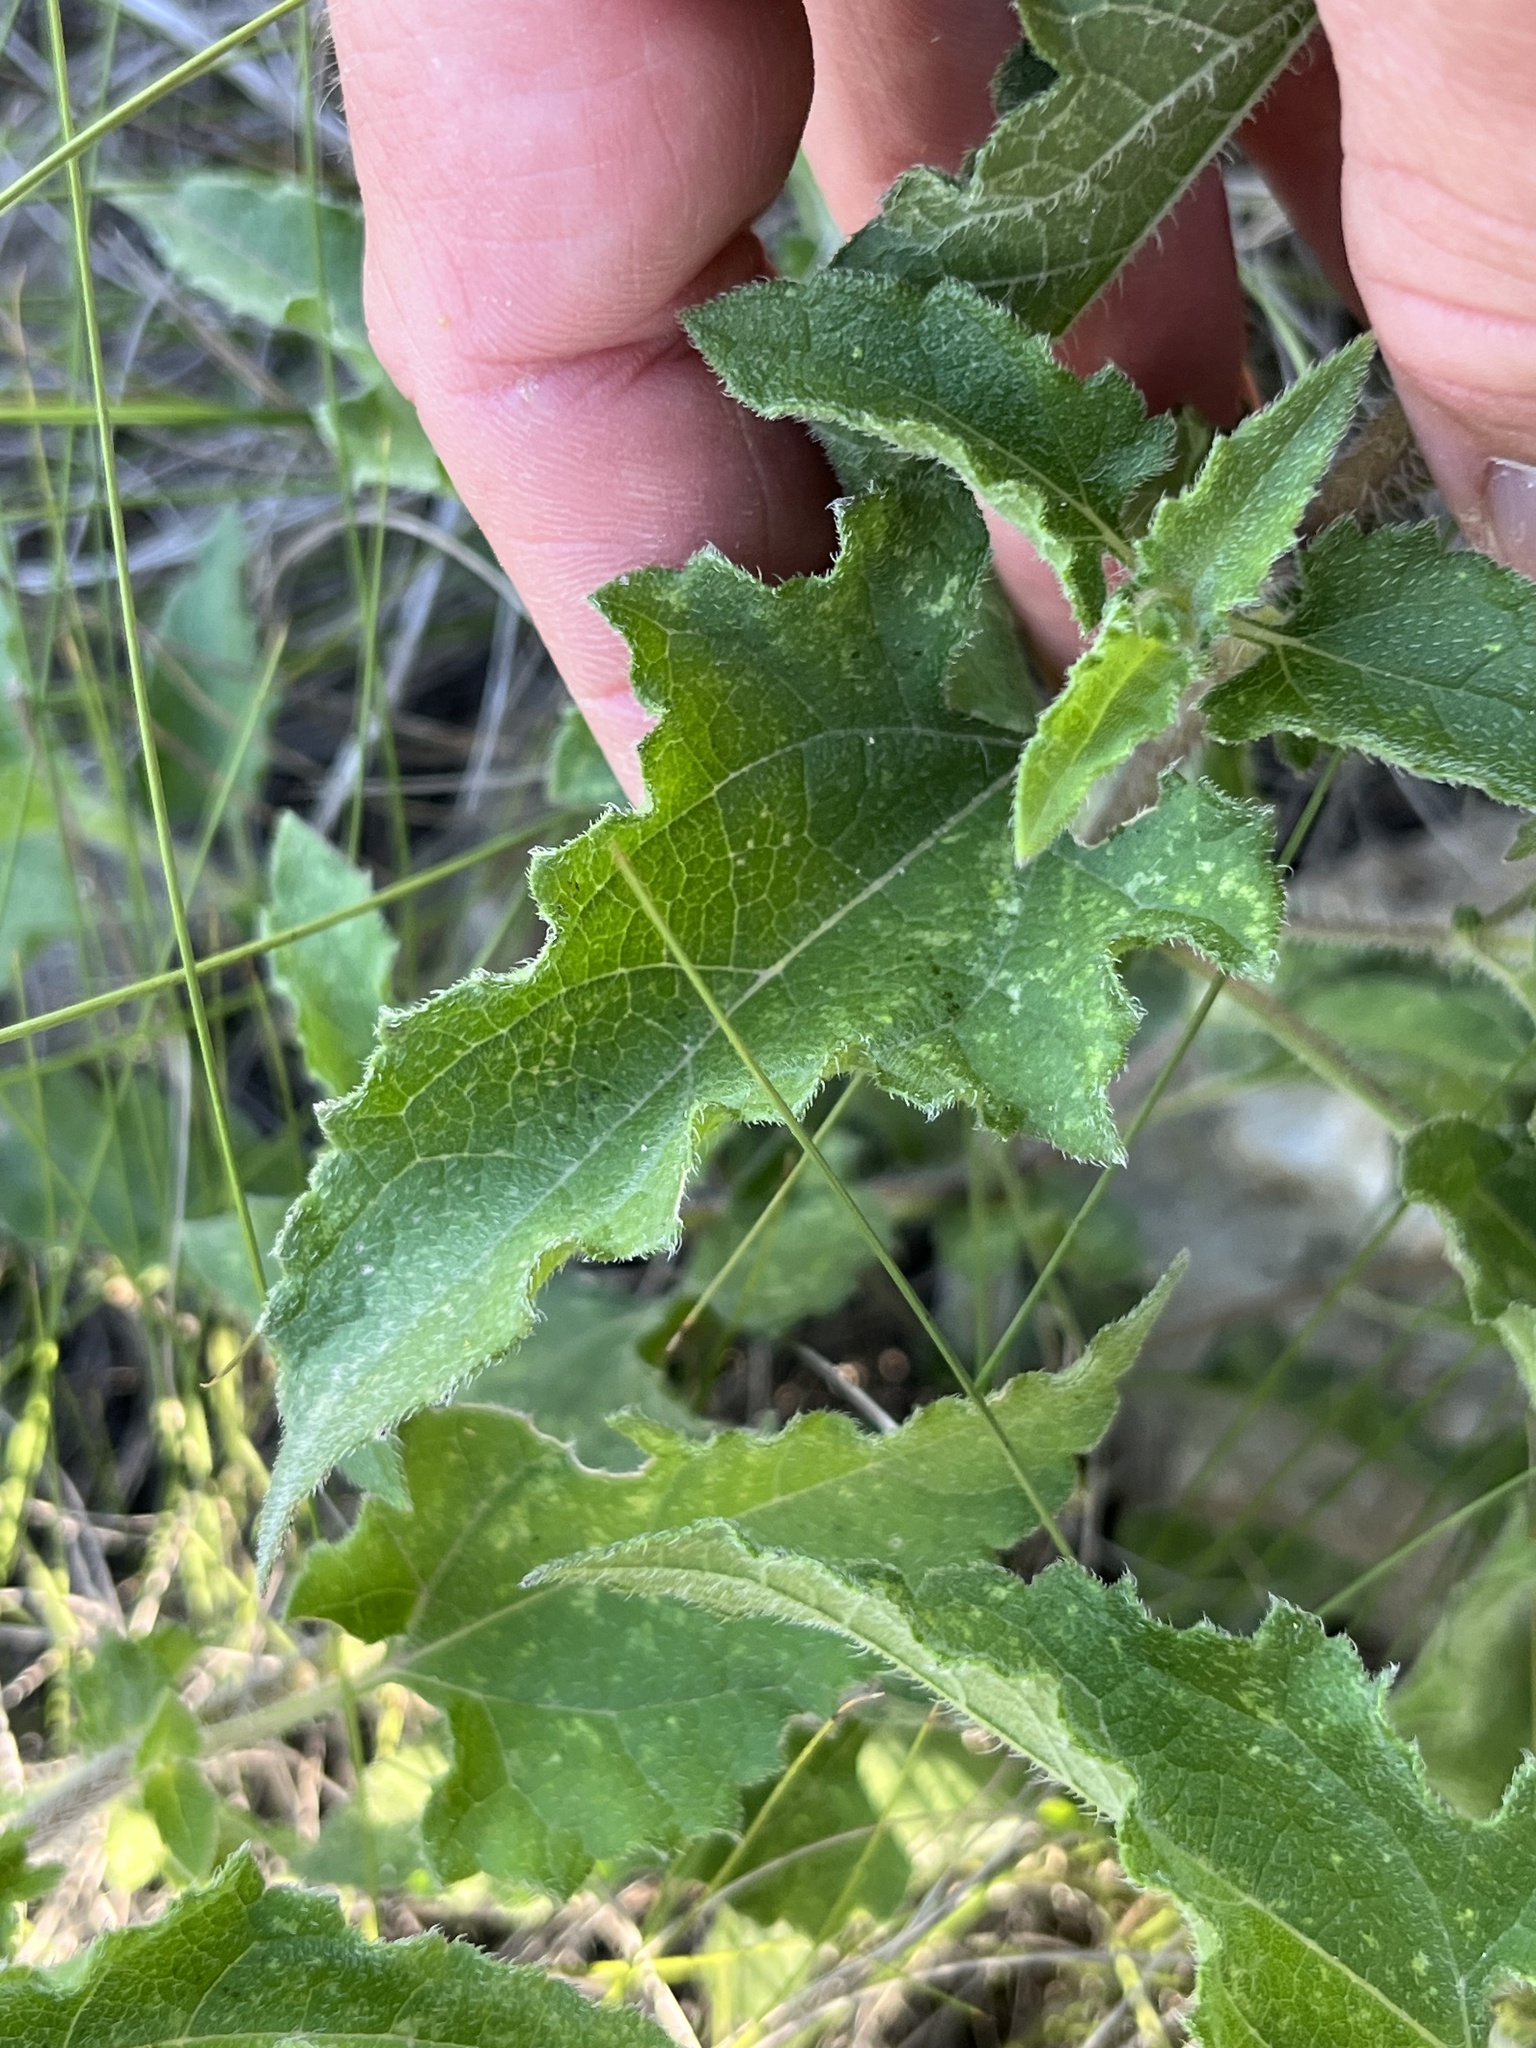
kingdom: Plantae
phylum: Tracheophyta
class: Magnoliopsida
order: Asterales
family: Asteraceae
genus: Simsia
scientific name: Simsia calva
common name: Awnless bush-sunflower
